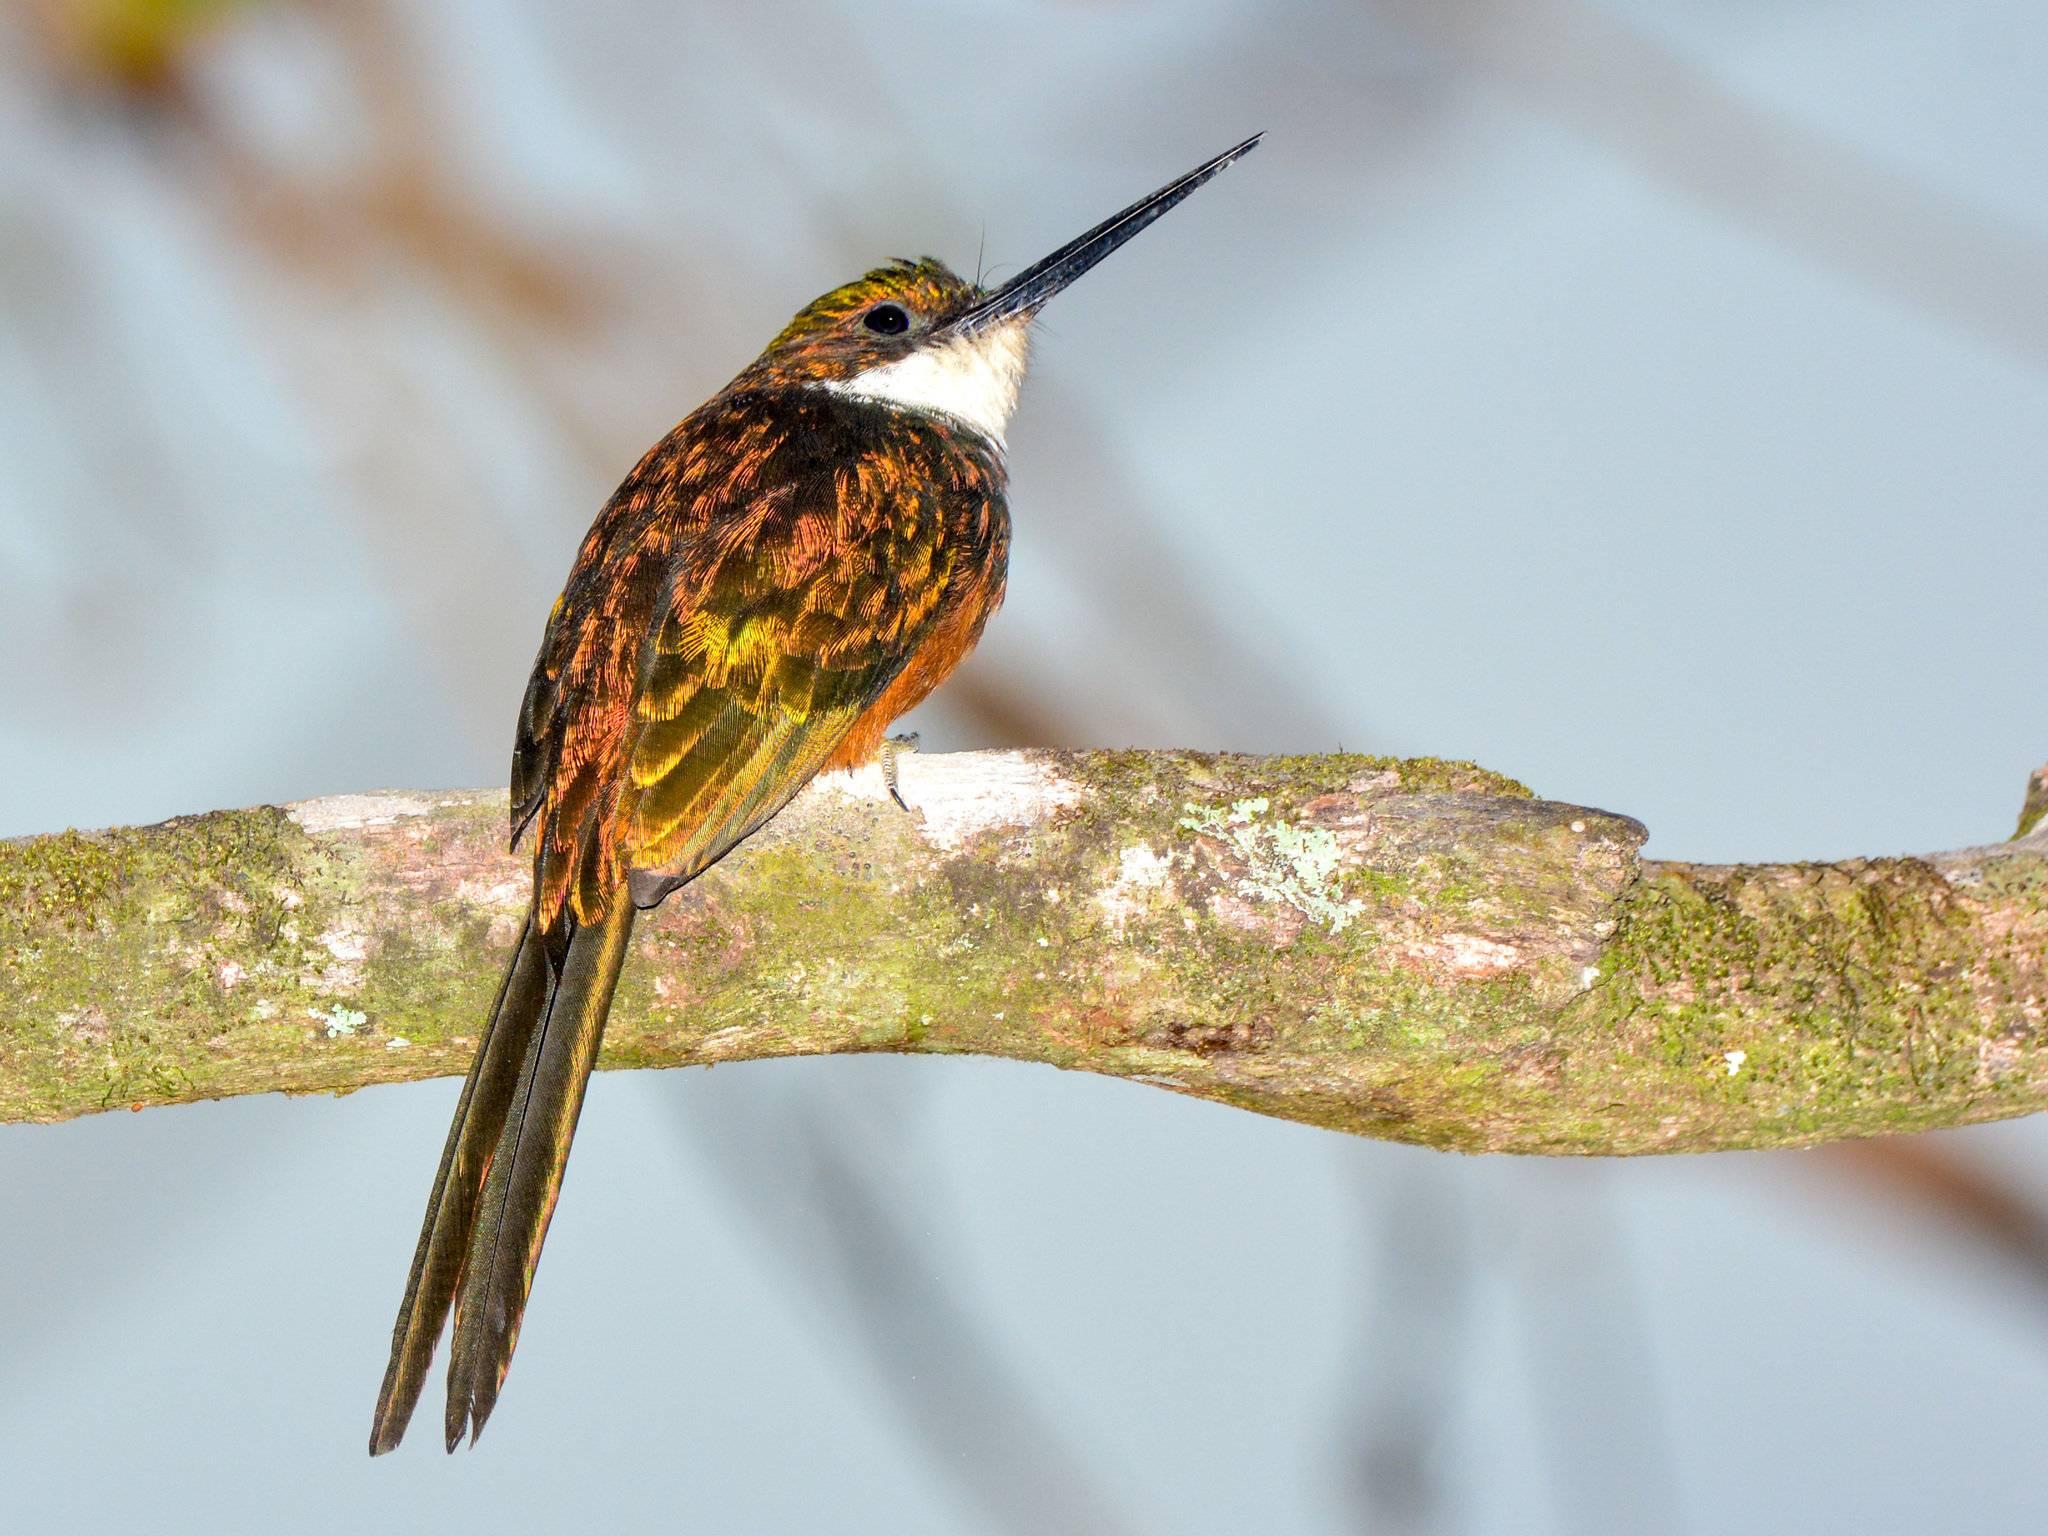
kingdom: Animalia
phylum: Chordata
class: Aves
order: Piciformes
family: Galbulidae
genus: Galbula
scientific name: Galbula ruficauda
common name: Rufous-tailed jacamar
